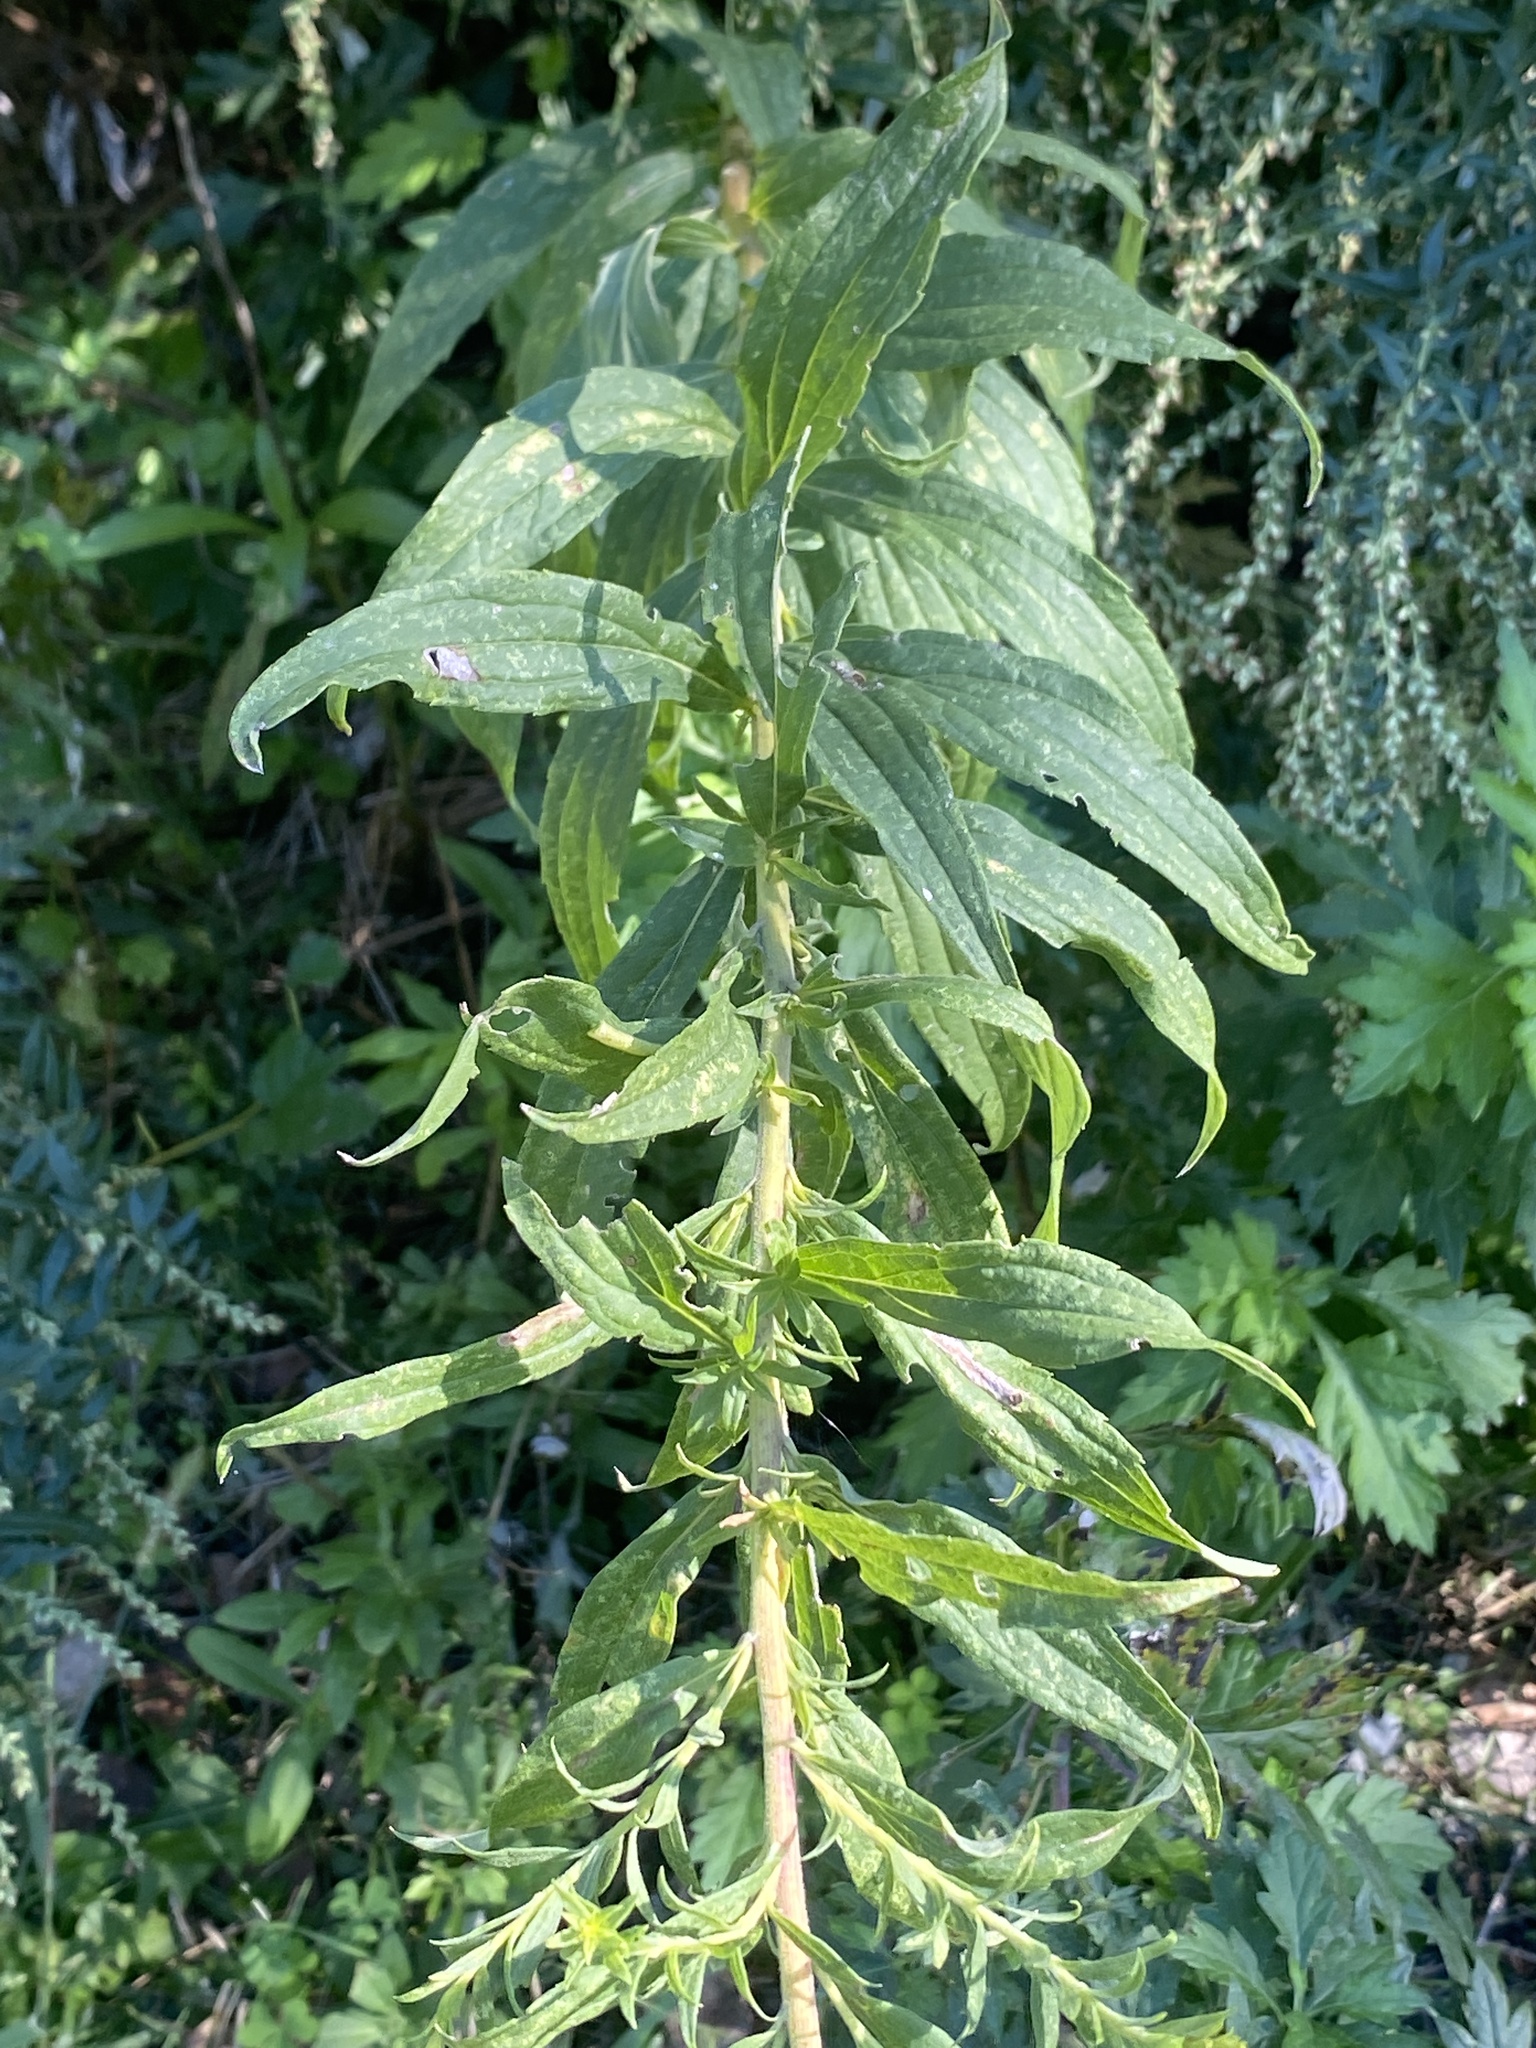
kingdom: Plantae
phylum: Tracheophyta
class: Magnoliopsida
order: Asterales
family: Asteraceae
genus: Solidago
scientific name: Solidago altissima
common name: Late goldenrod
